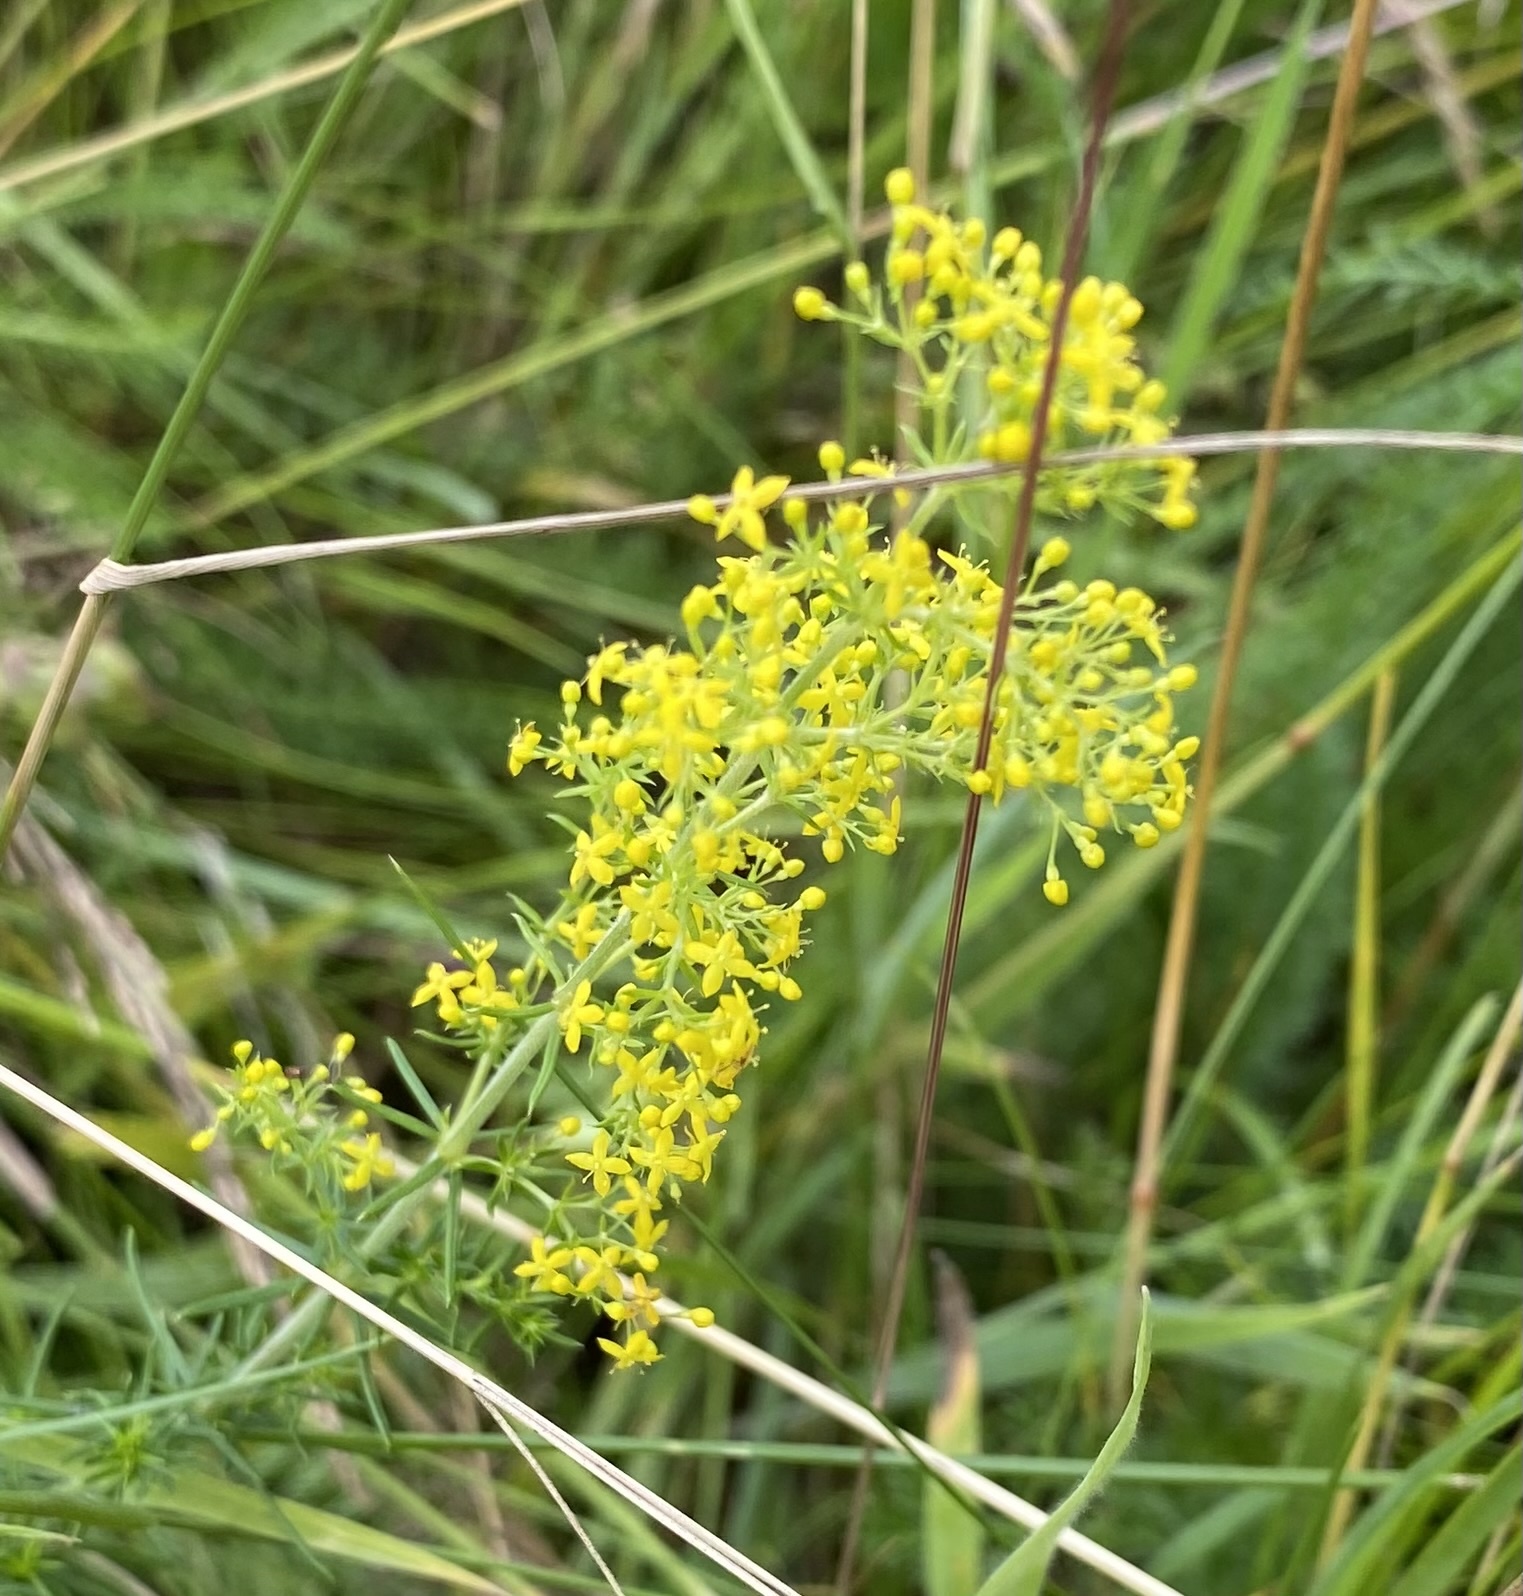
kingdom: Plantae
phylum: Tracheophyta
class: Magnoliopsida
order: Gentianales
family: Rubiaceae
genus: Galium
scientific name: Galium verum
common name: Lady's bedstraw
